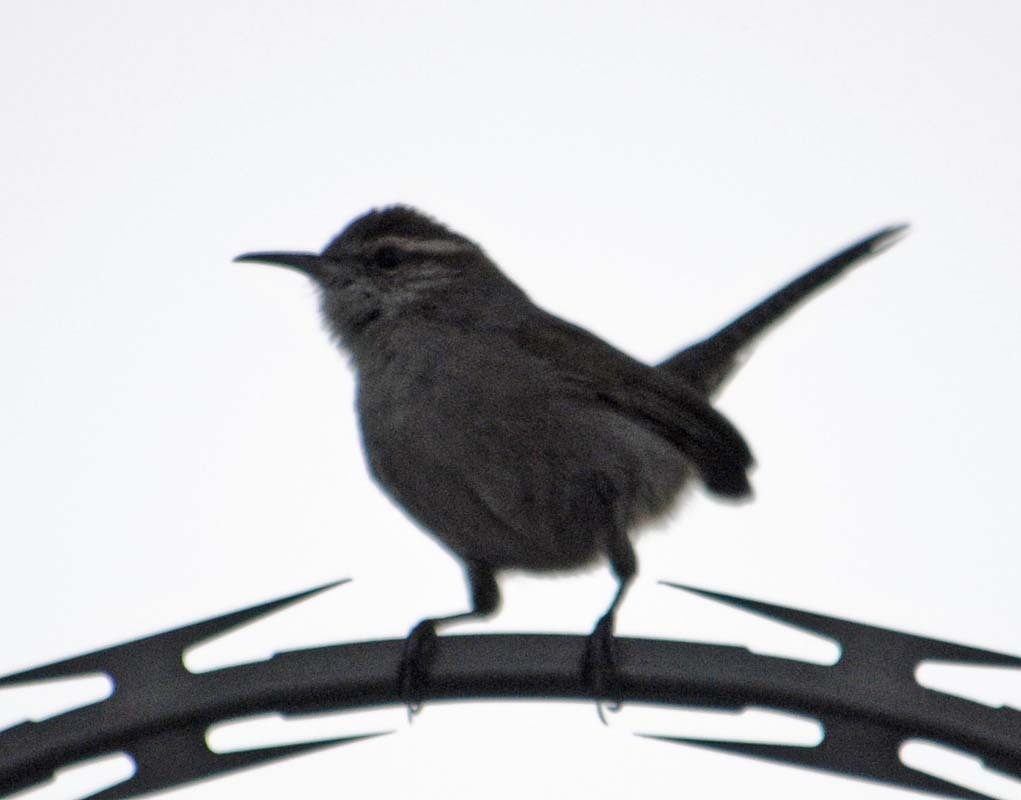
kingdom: Animalia
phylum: Chordata
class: Aves
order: Passeriformes
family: Troglodytidae
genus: Thryomanes
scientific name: Thryomanes bewickii
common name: Bewick's wren
